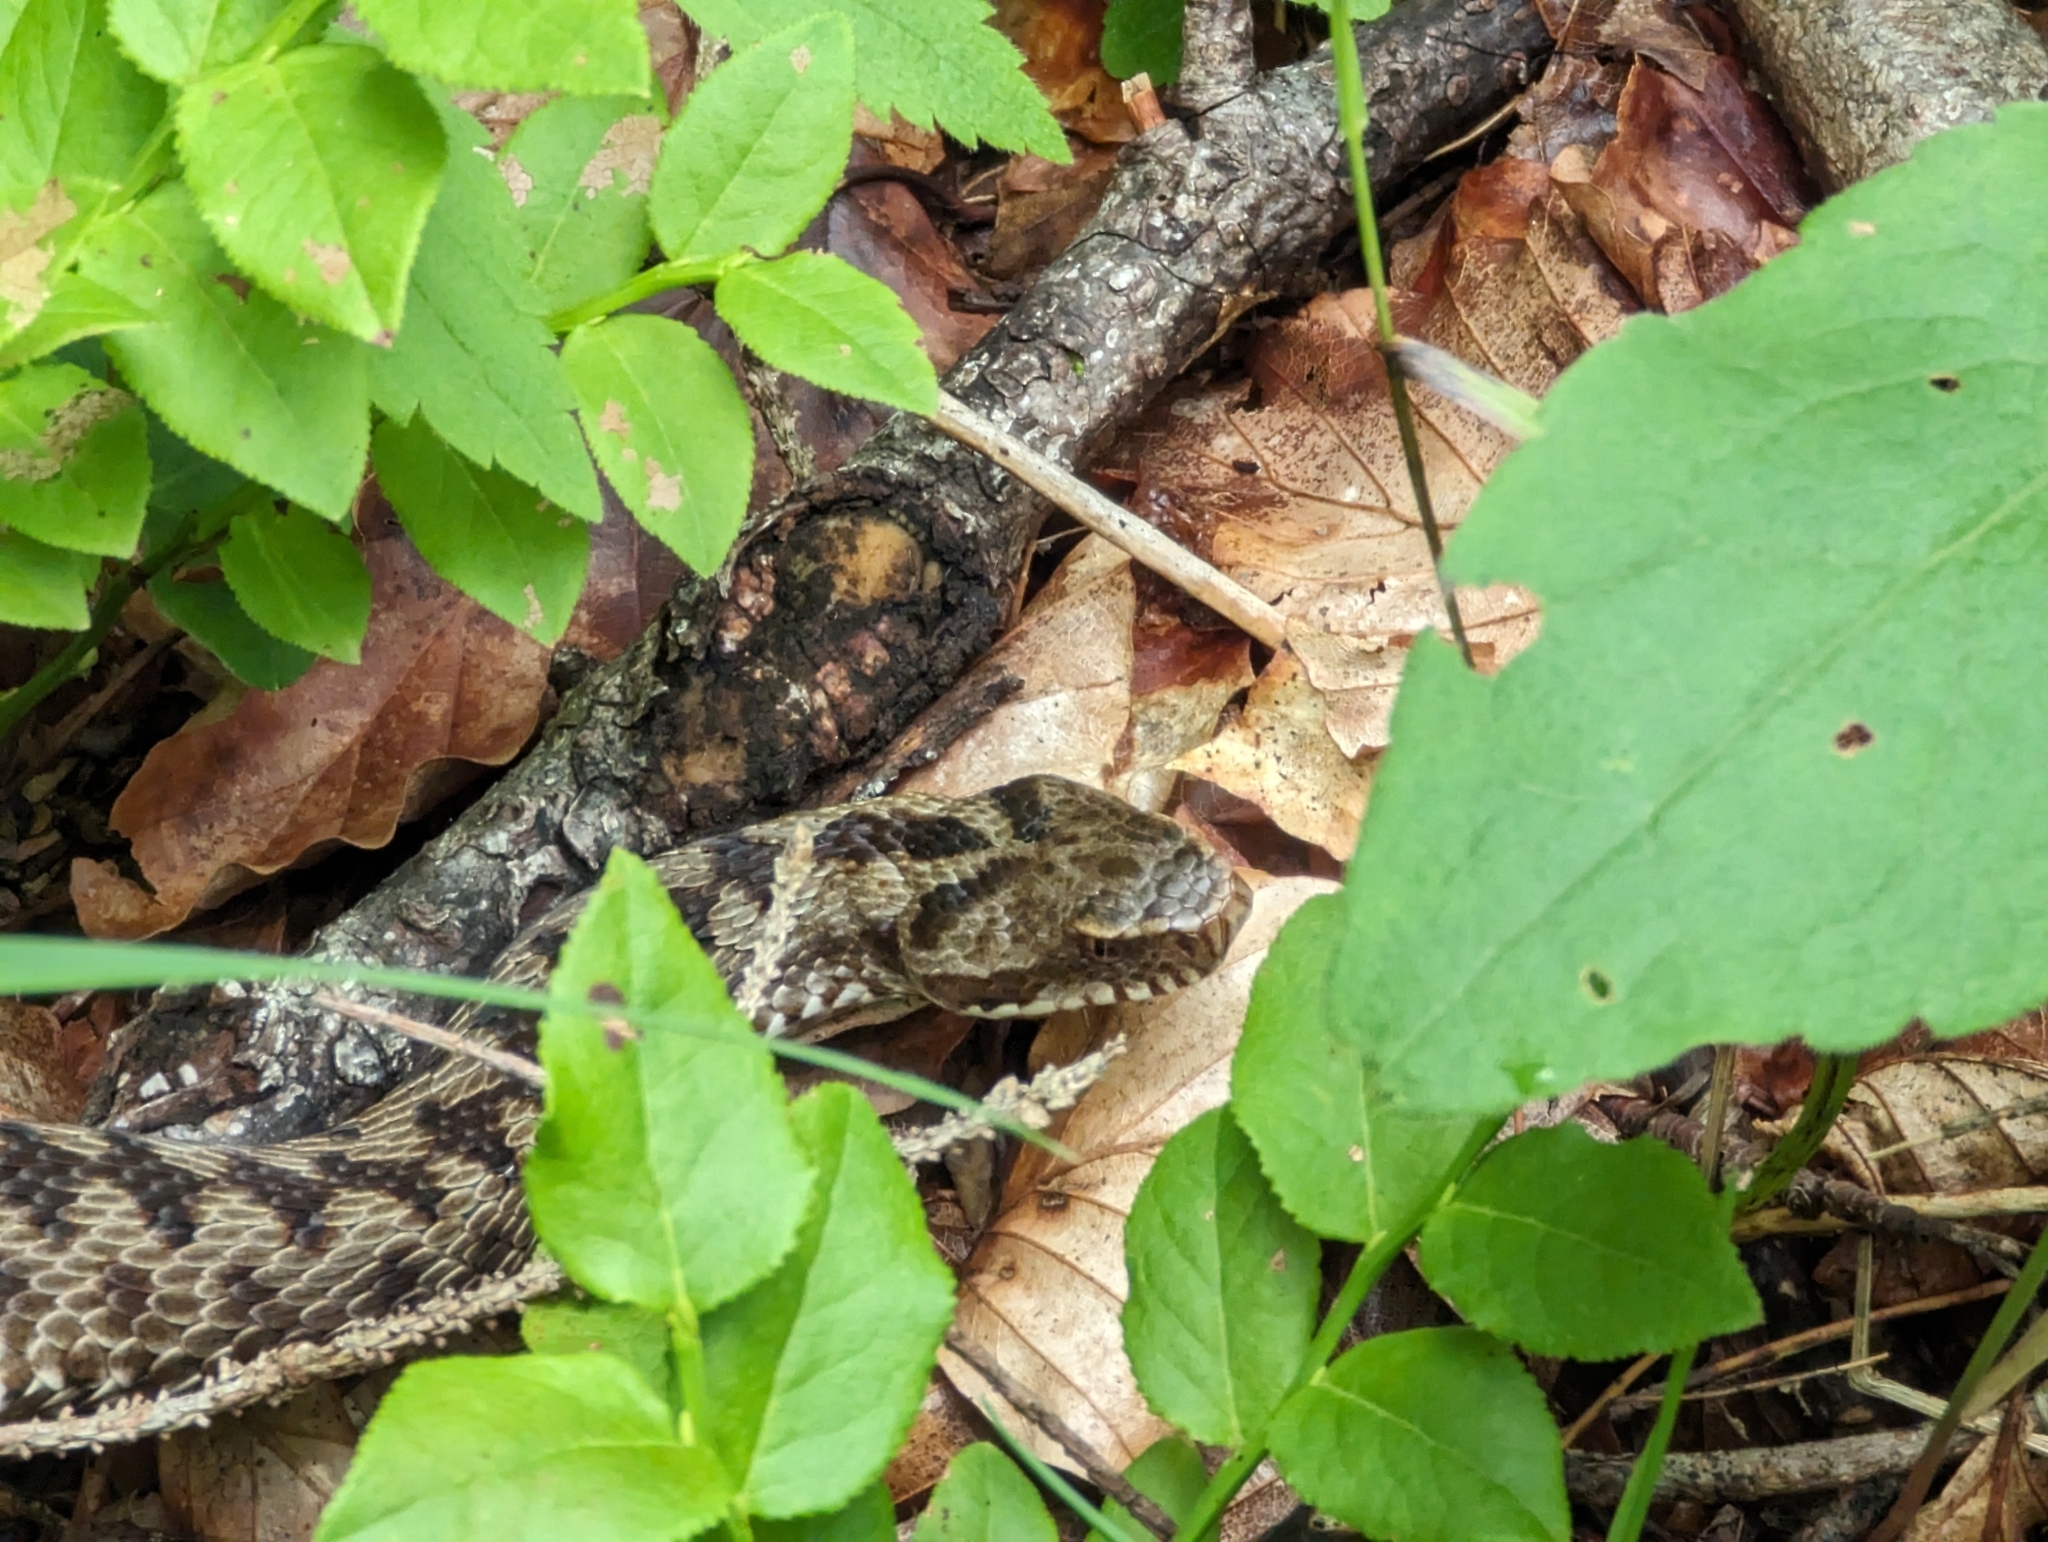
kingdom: Animalia
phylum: Chordata
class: Squamata
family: Viperidae
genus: Vipera
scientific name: Vipera berus
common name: Adder
